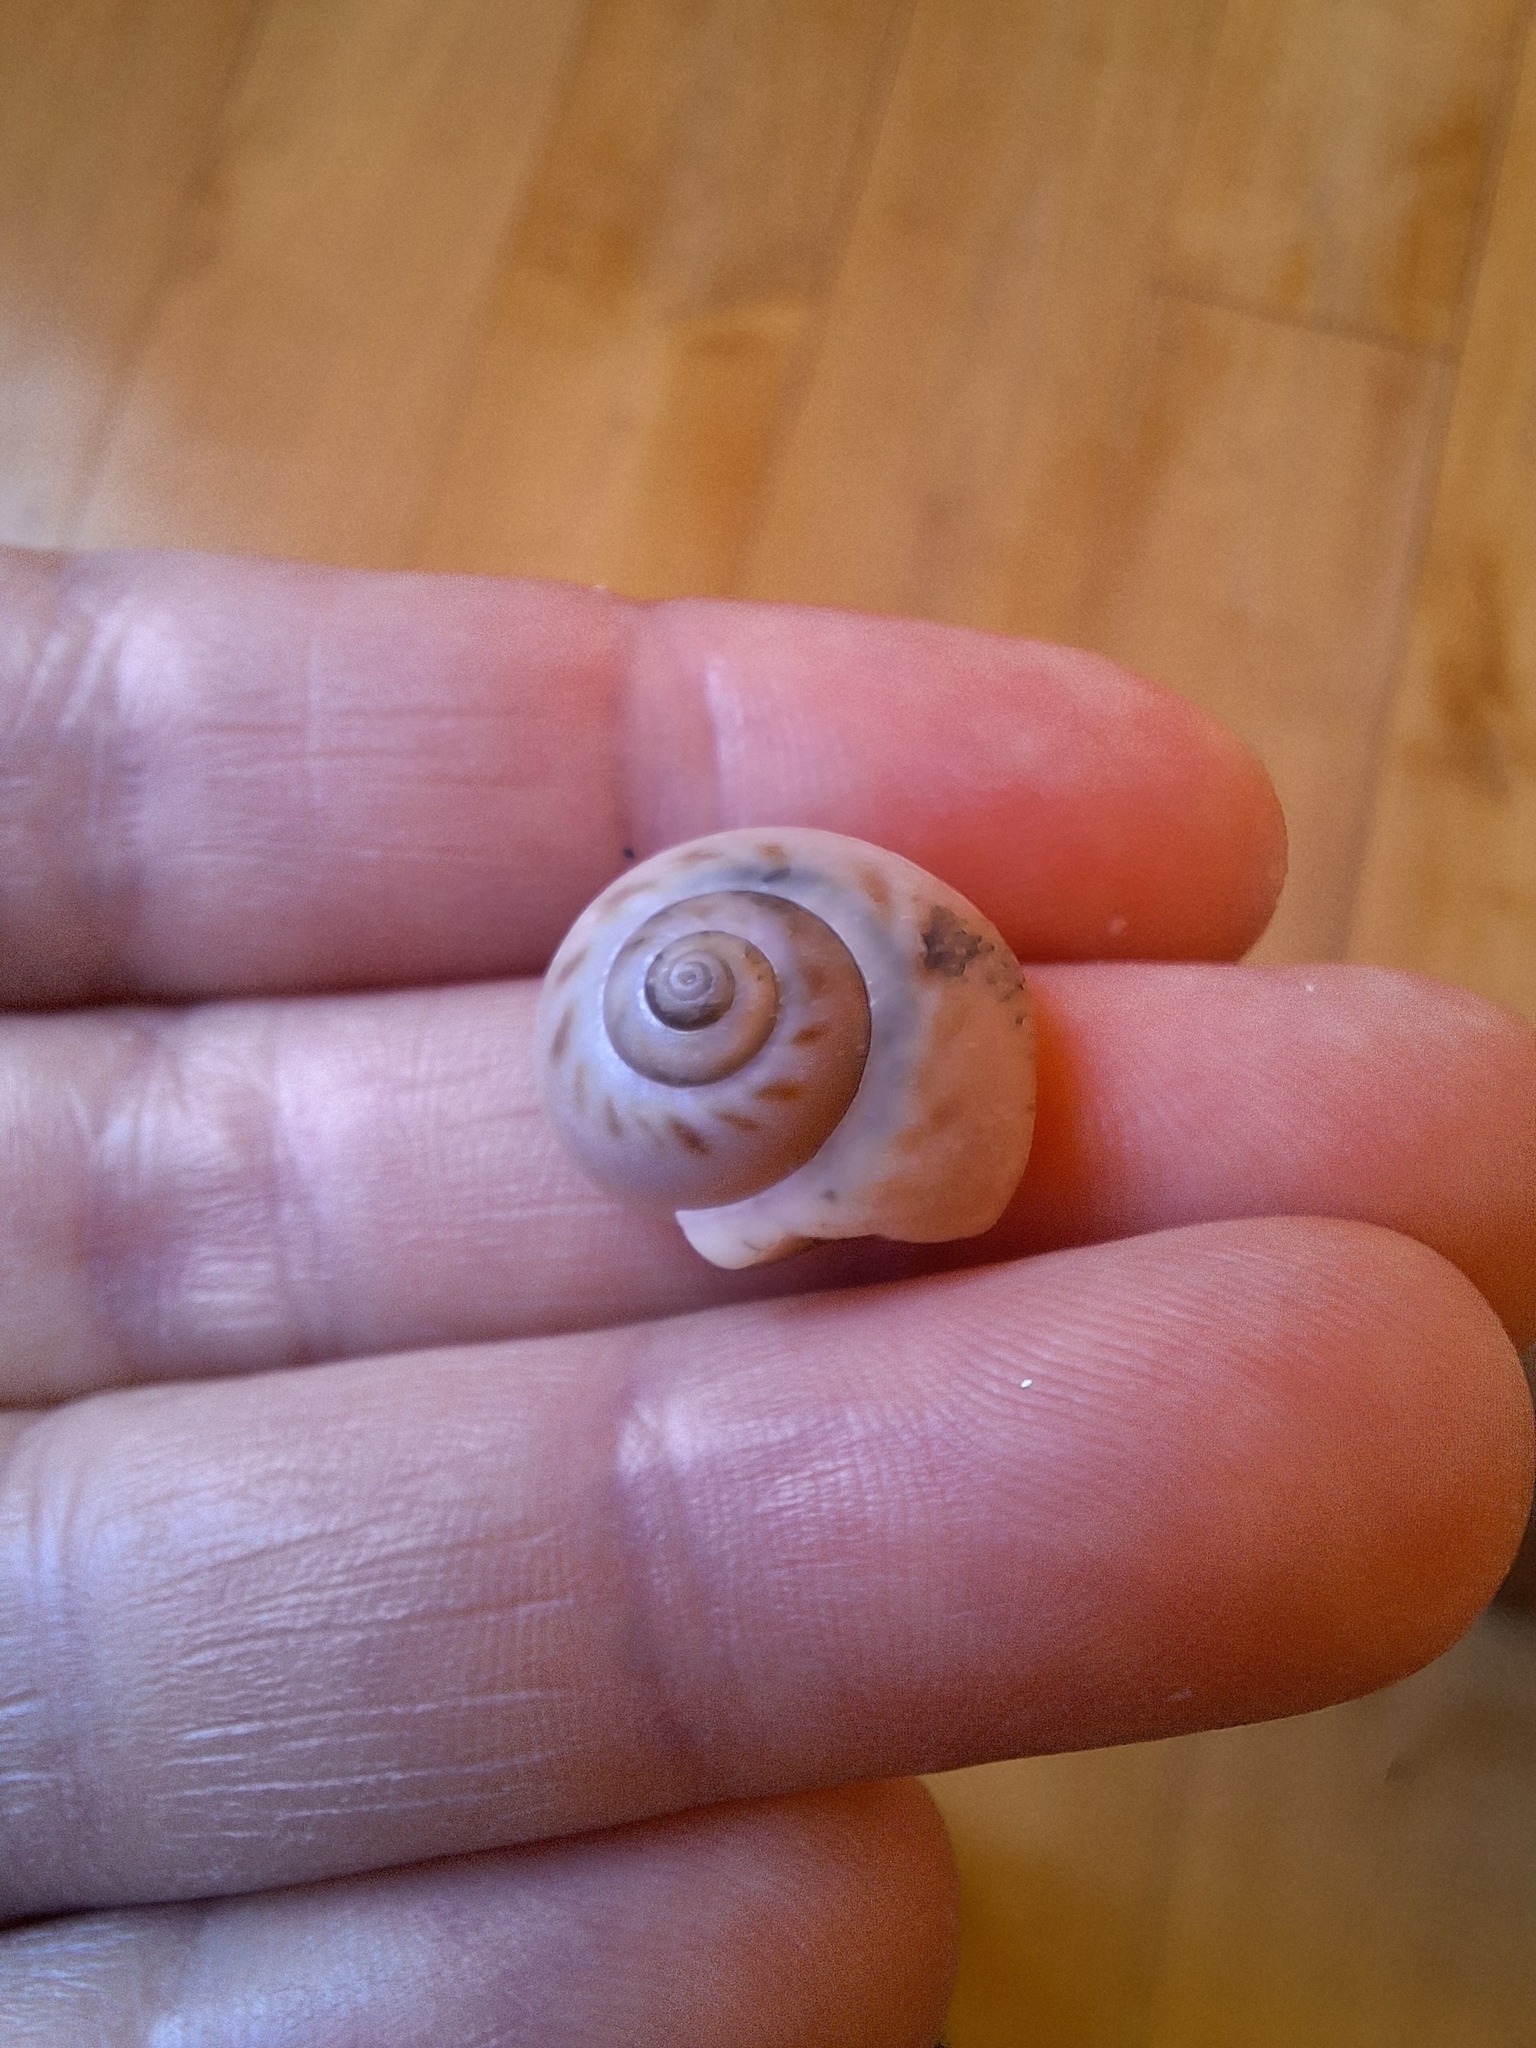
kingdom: Animalia
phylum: Mollusca
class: Gastropoda
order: Littorinimorpha
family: Naticidae
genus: Euspira
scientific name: Euspira catena
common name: Necklace shell
